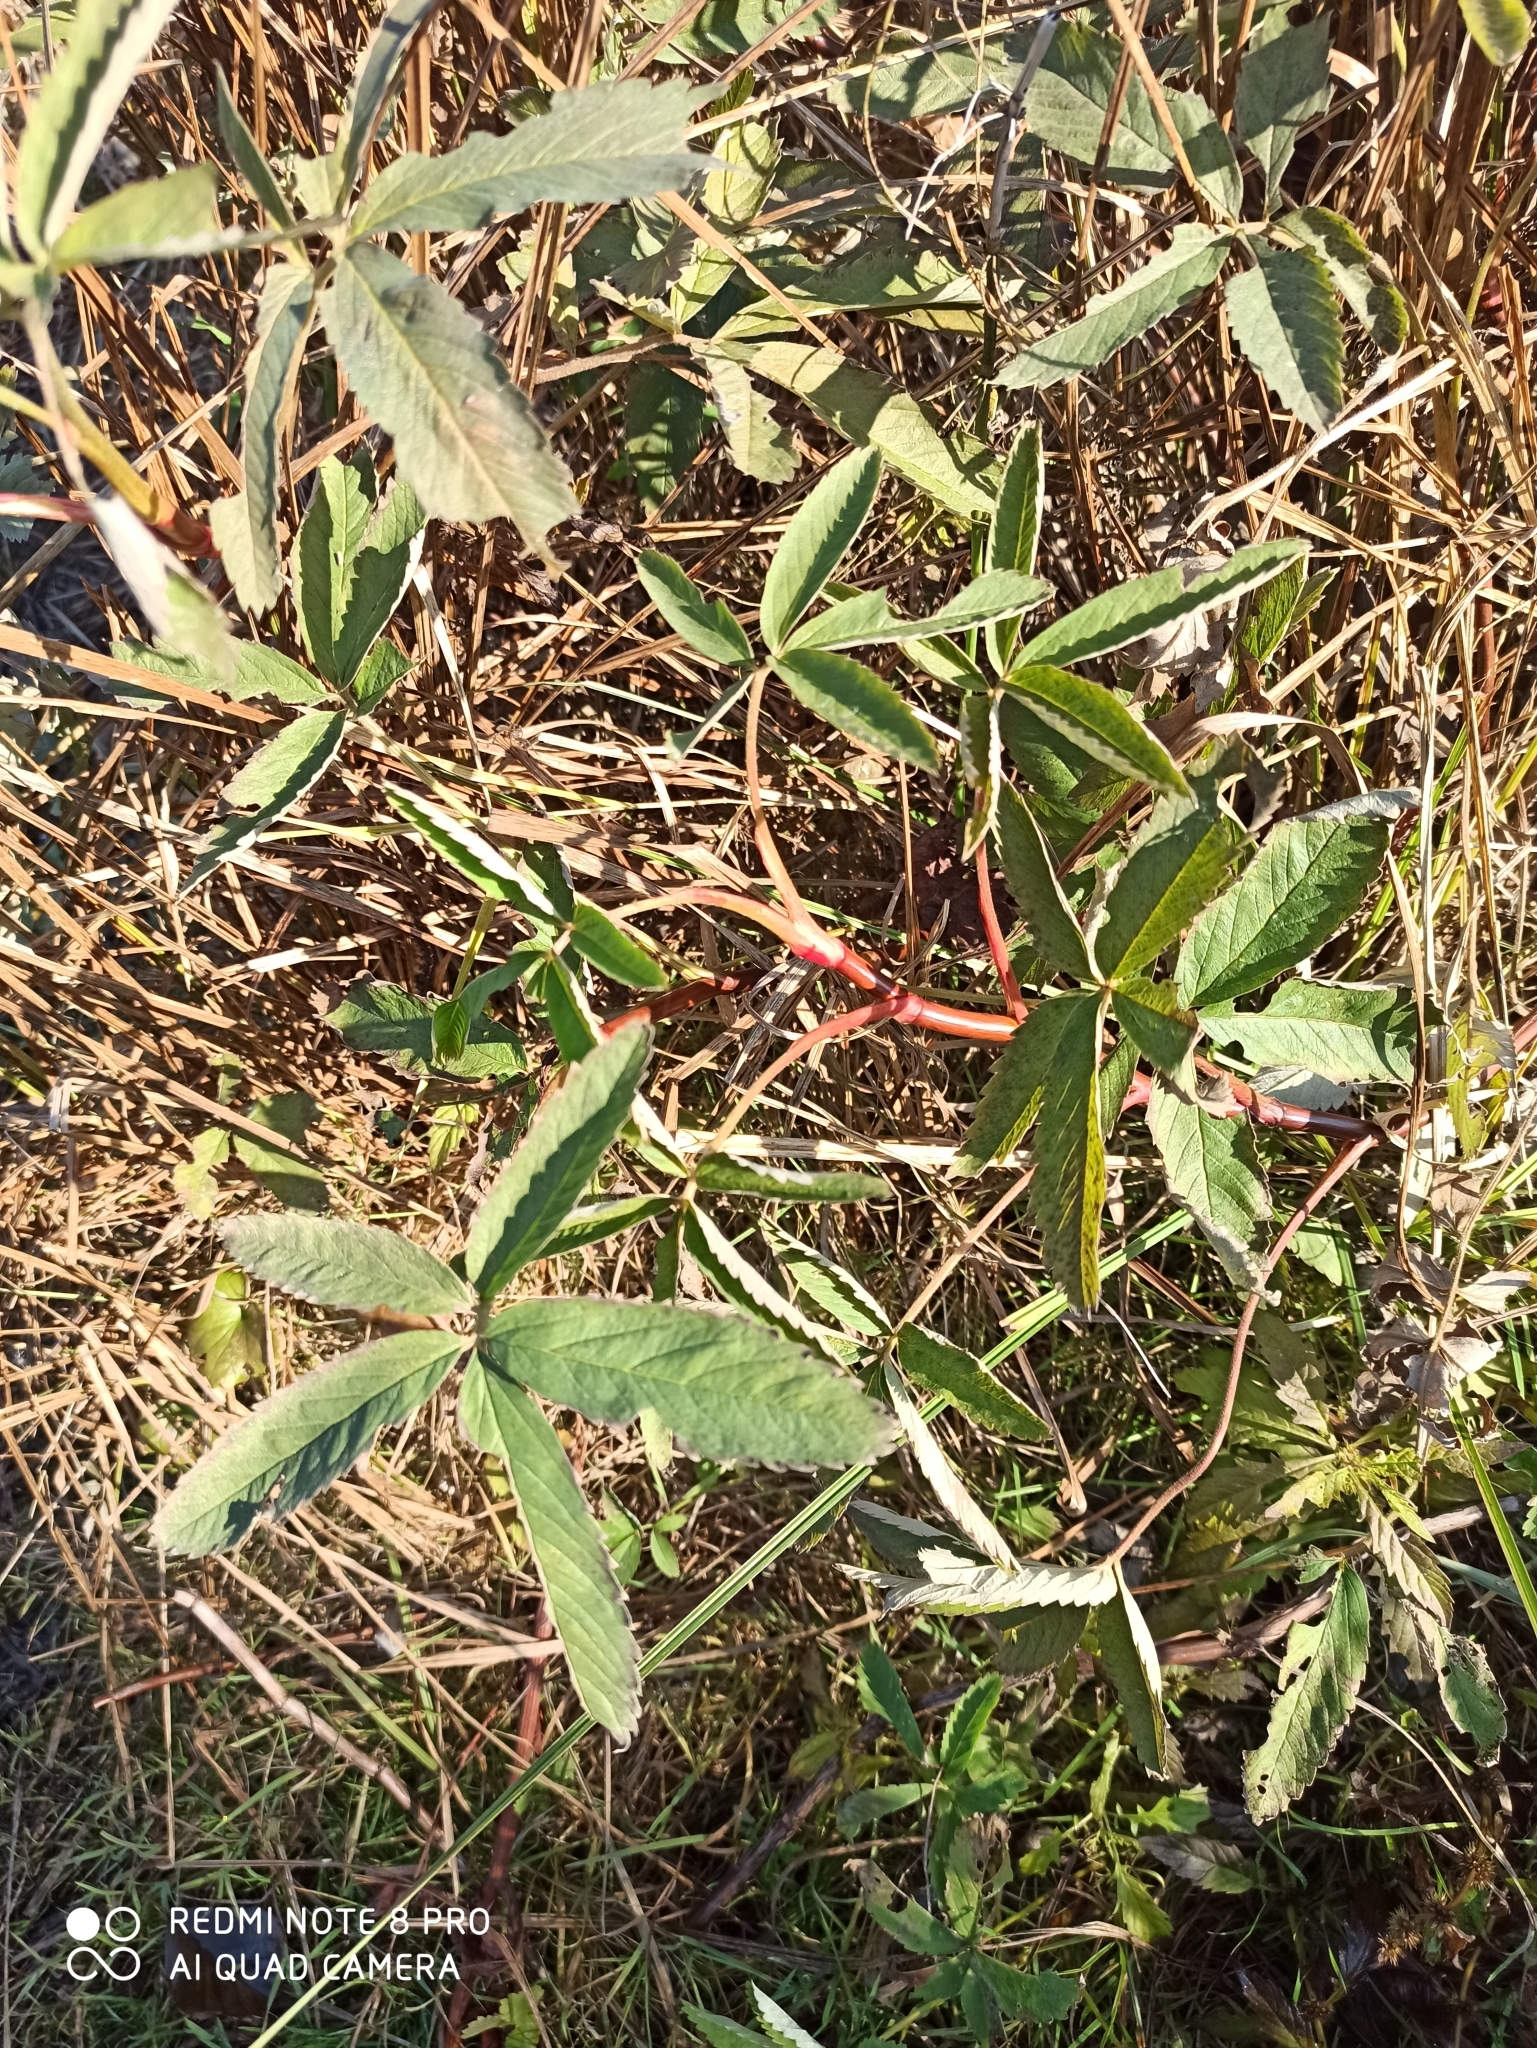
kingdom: Plantae
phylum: Tracheophyta
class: Magnoliopsida
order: Rosales
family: Rosaceae
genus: Comarum
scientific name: Comarum palustre
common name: Marsh cinquefoil
